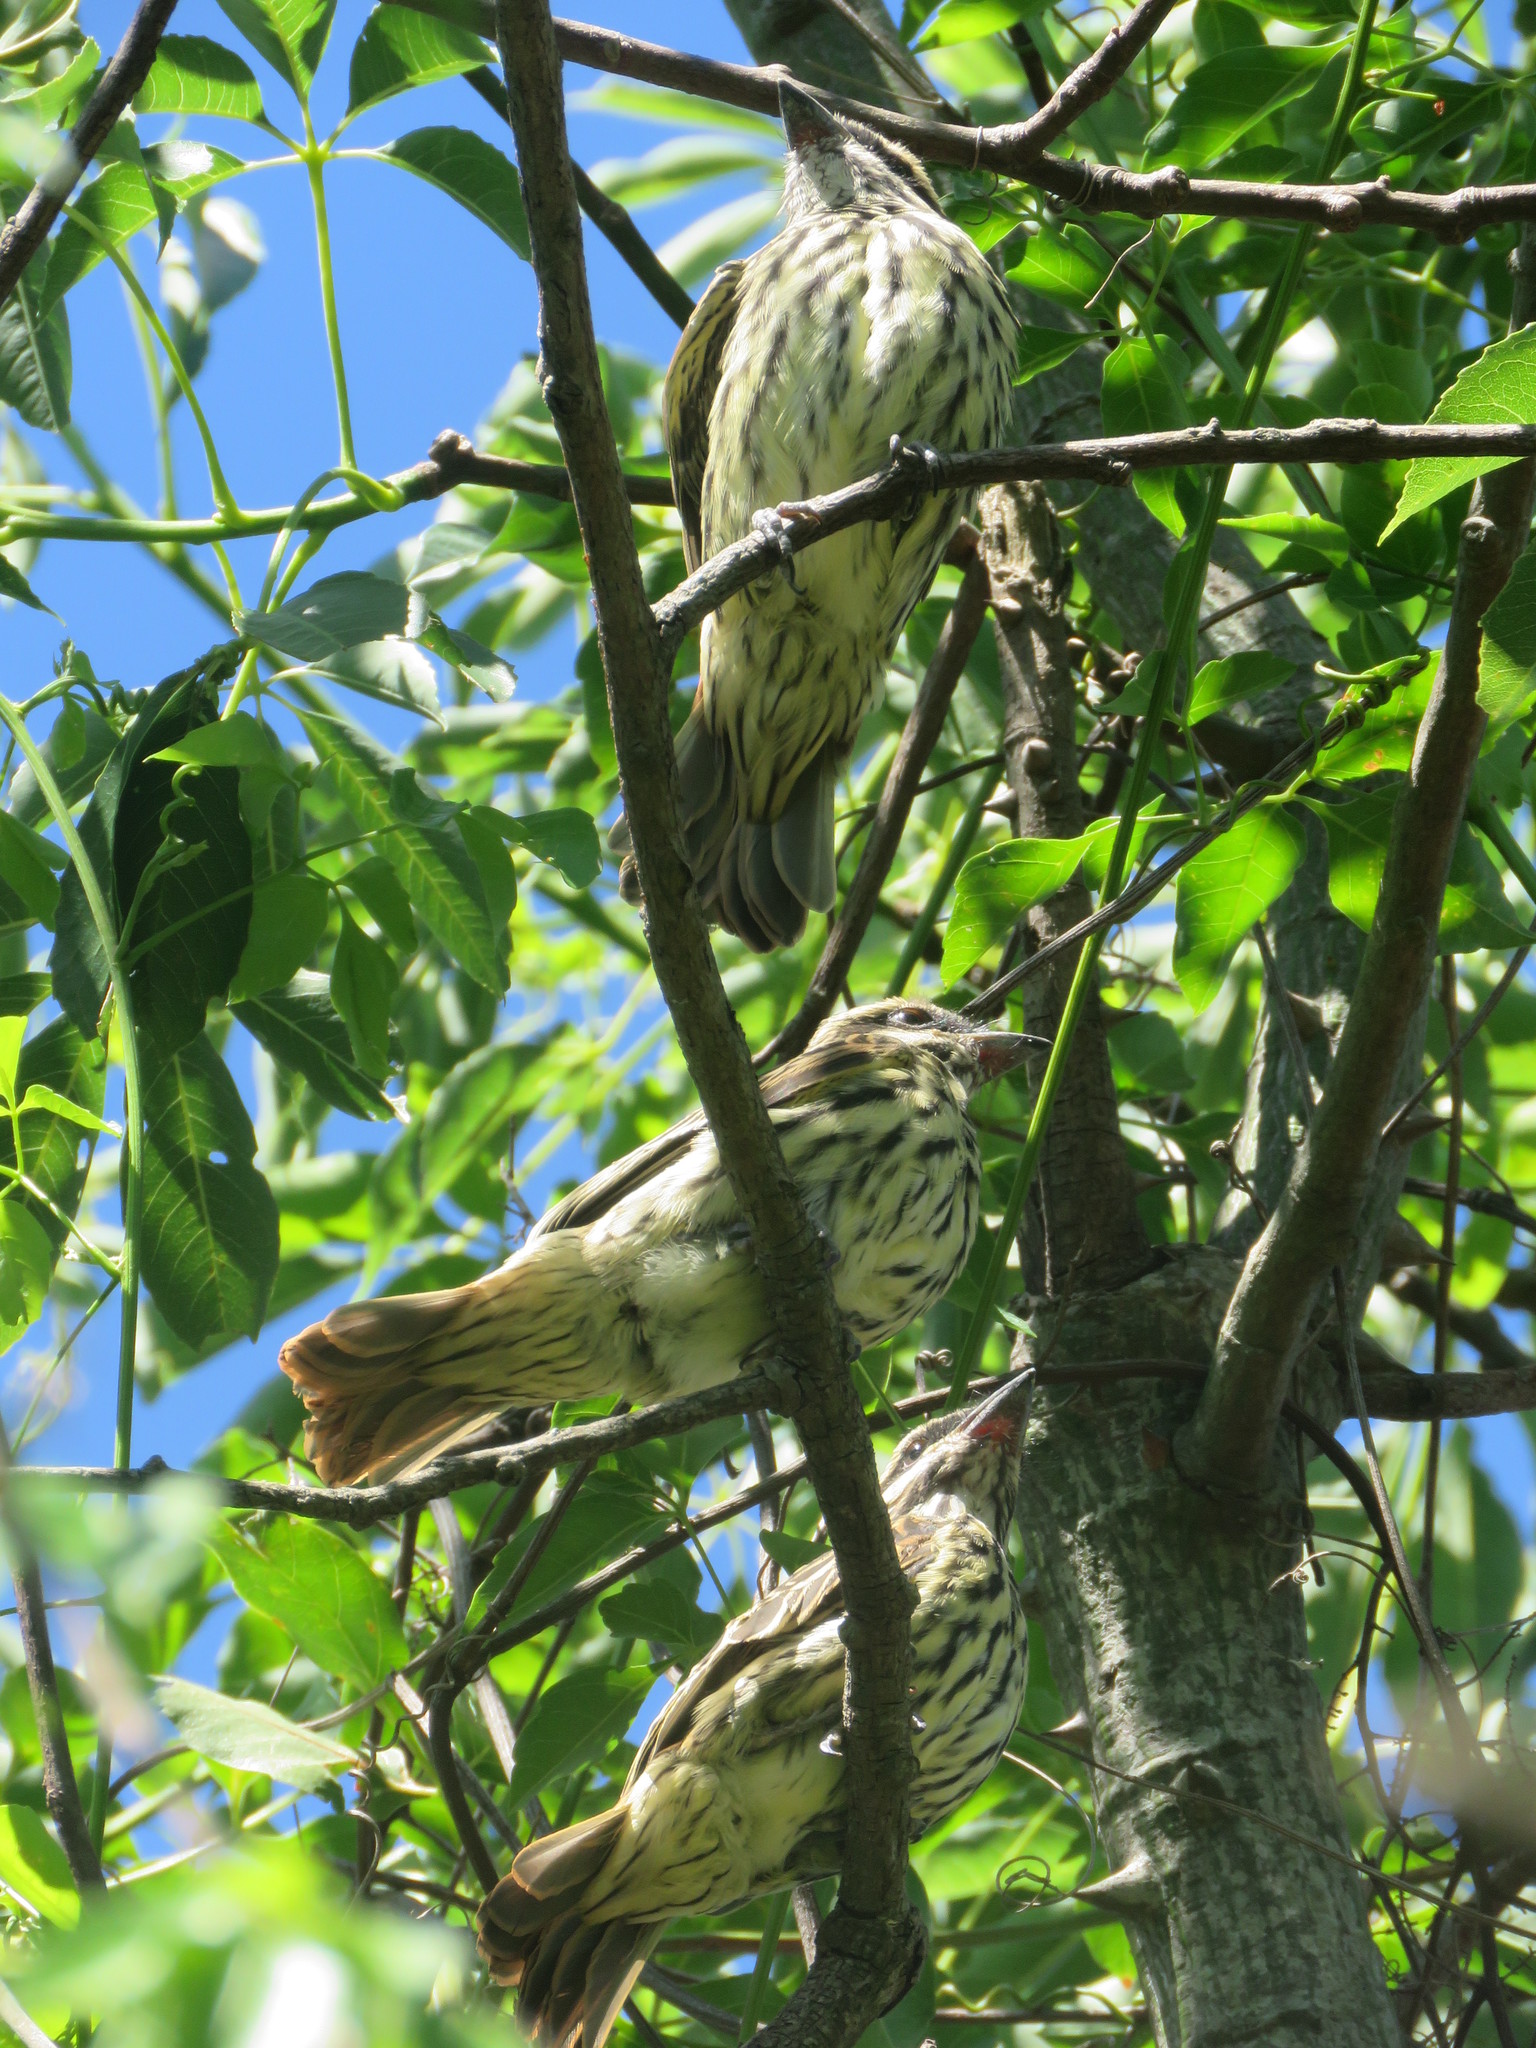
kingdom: Animalia
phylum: Chordata
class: Aves
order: Passeriformes
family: Tyrannidae
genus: Myiodynastes
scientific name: Myiodynastes maculatus
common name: Streaked flycatcher
